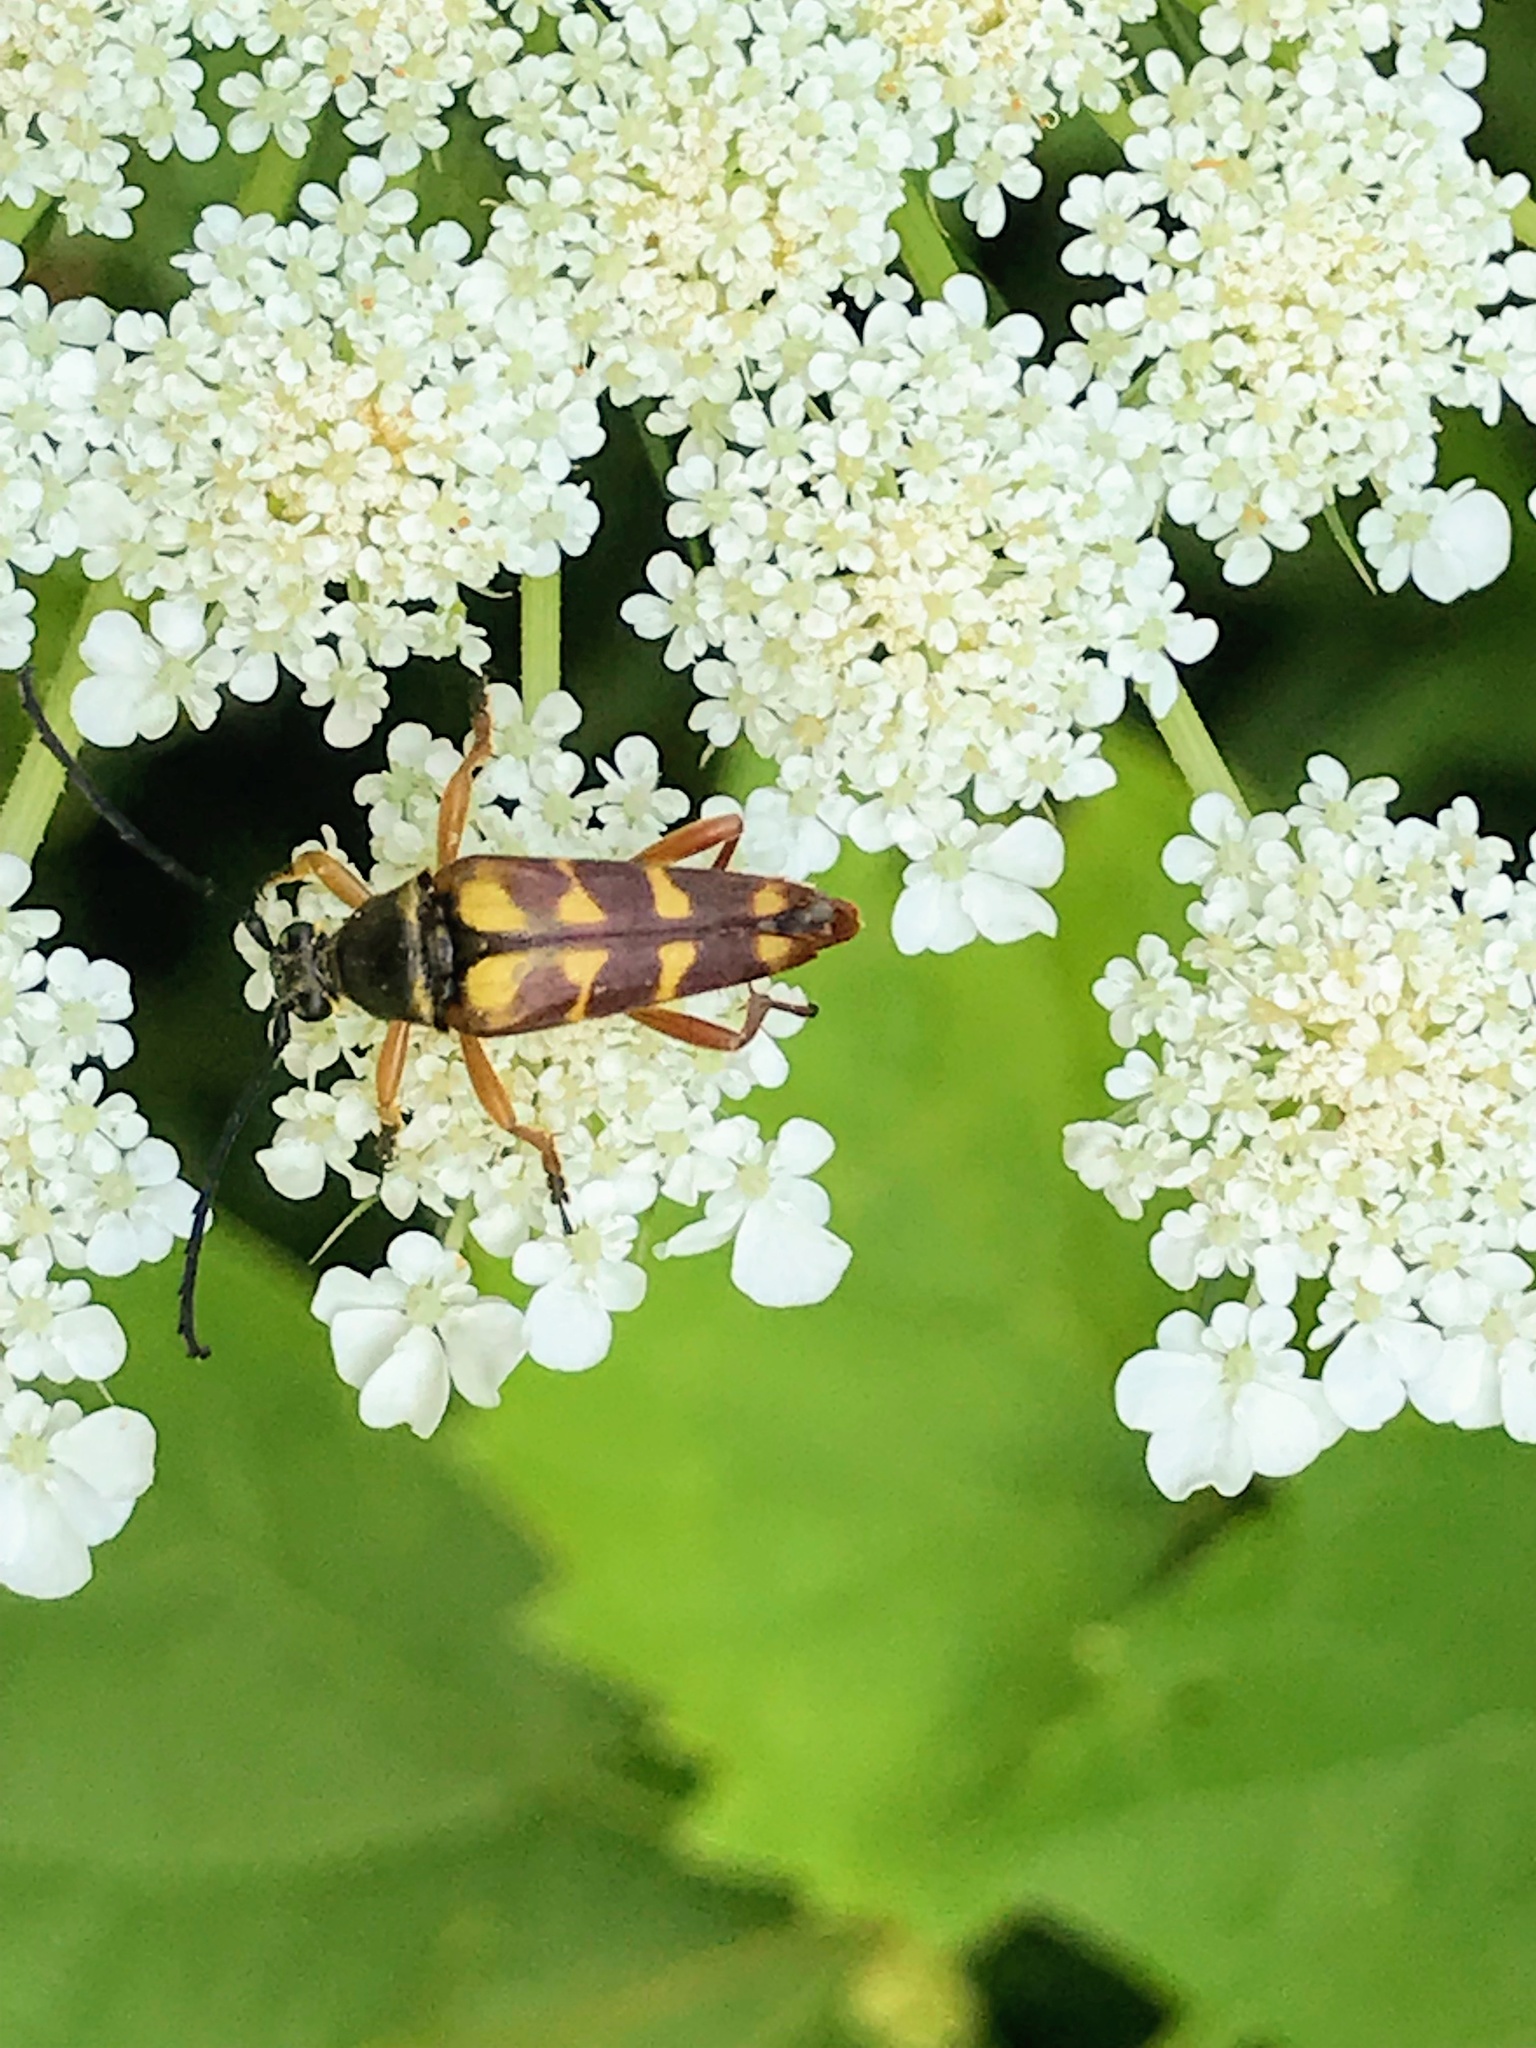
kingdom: Animalia
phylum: Arthropoda
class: Insecta
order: Coleoptera
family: Cerambycidae
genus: Typocerus
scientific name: Typocerus velutinus
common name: Banded longhorn beetle
